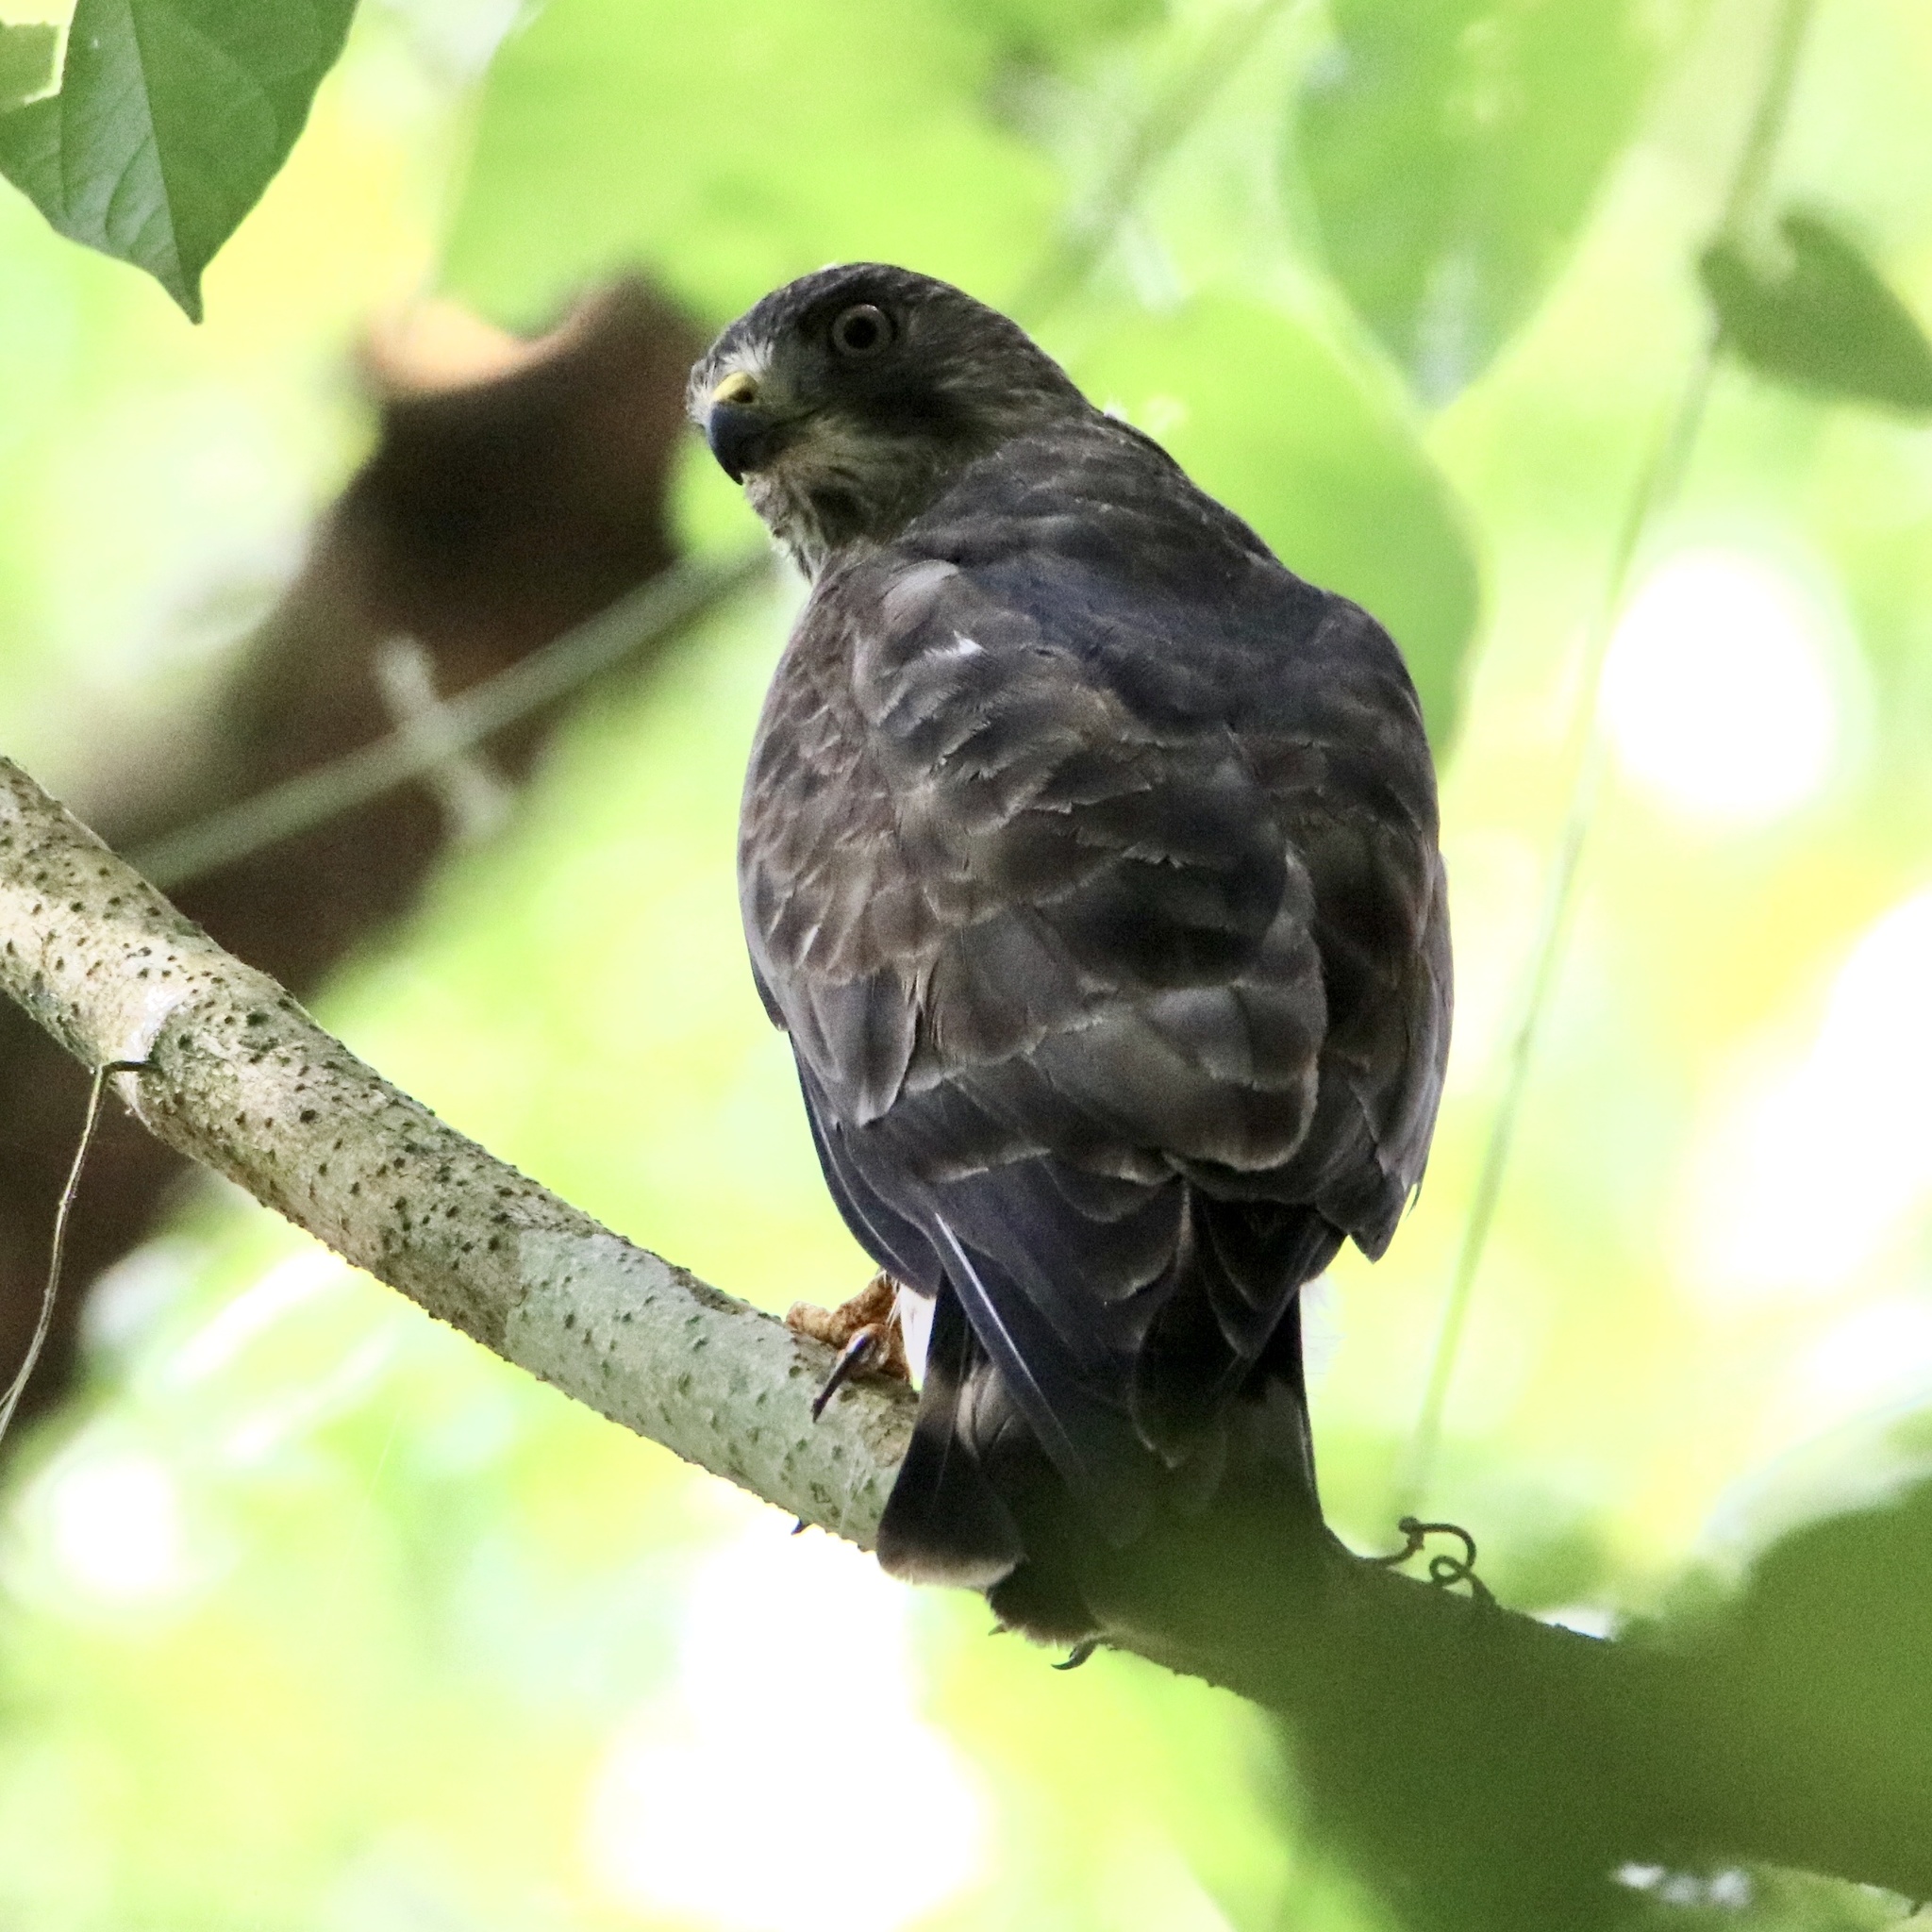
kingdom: Animalia
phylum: Chordata
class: Aves
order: Accipitriformes
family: Accipitridae
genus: Buteo
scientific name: Buteo platypterus
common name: Broad-winged hawk
